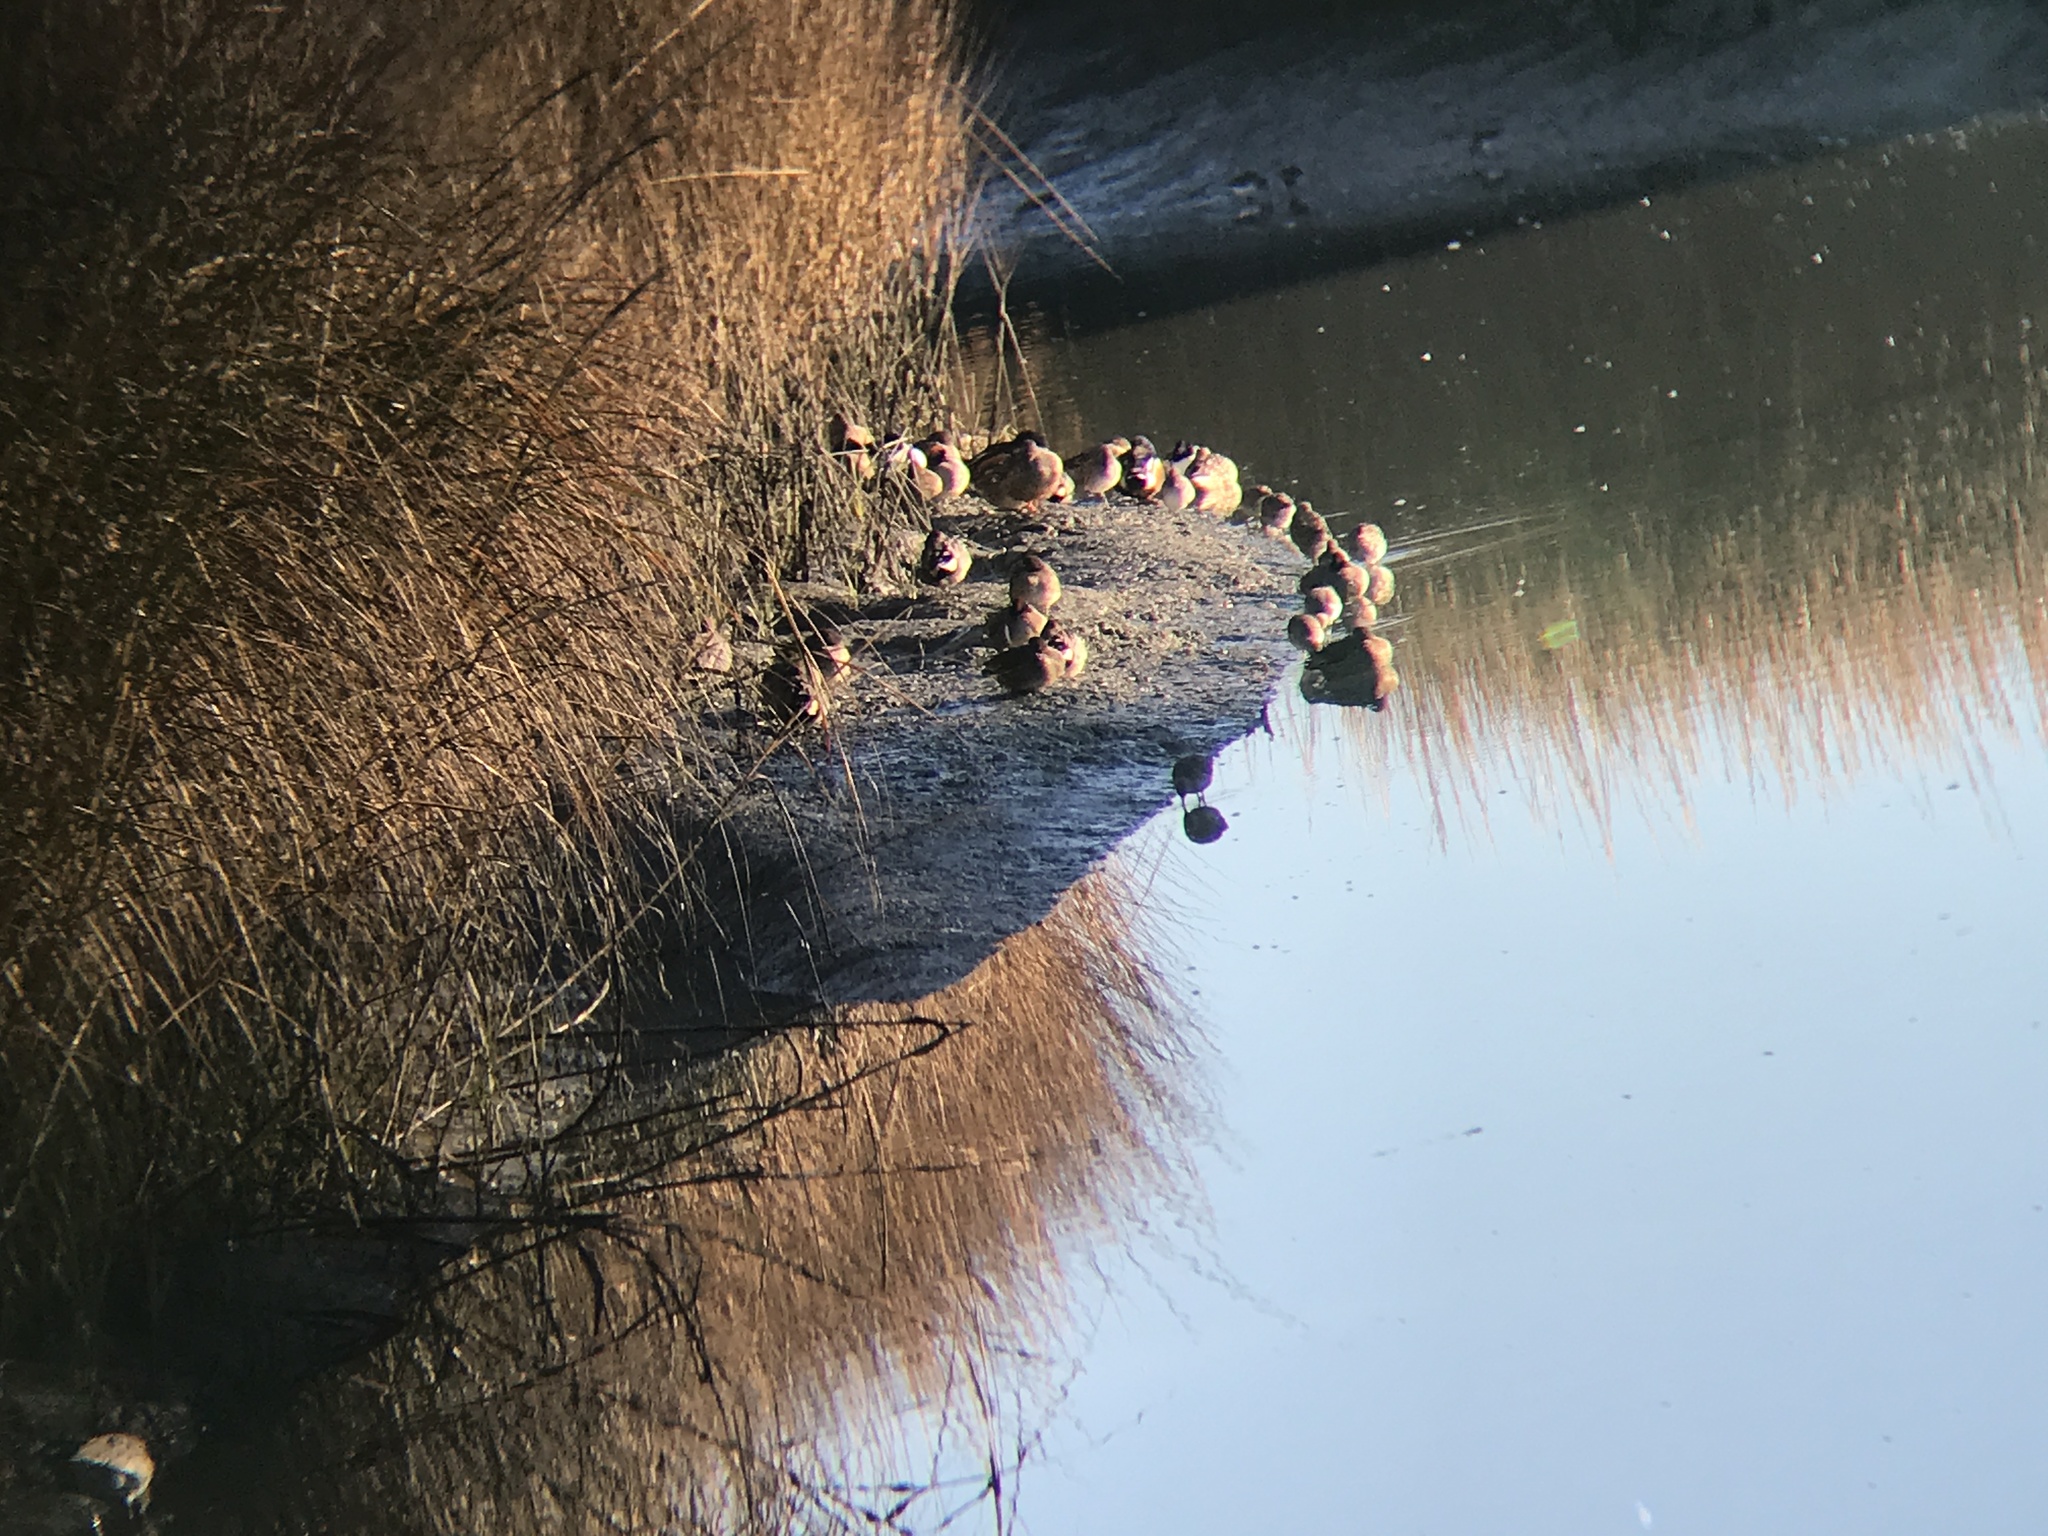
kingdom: Animalia
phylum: Chordata
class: Aves
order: Anseriformes
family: Anatidae
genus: Spatula
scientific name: Spatula clypeata
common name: Northern shoveler
